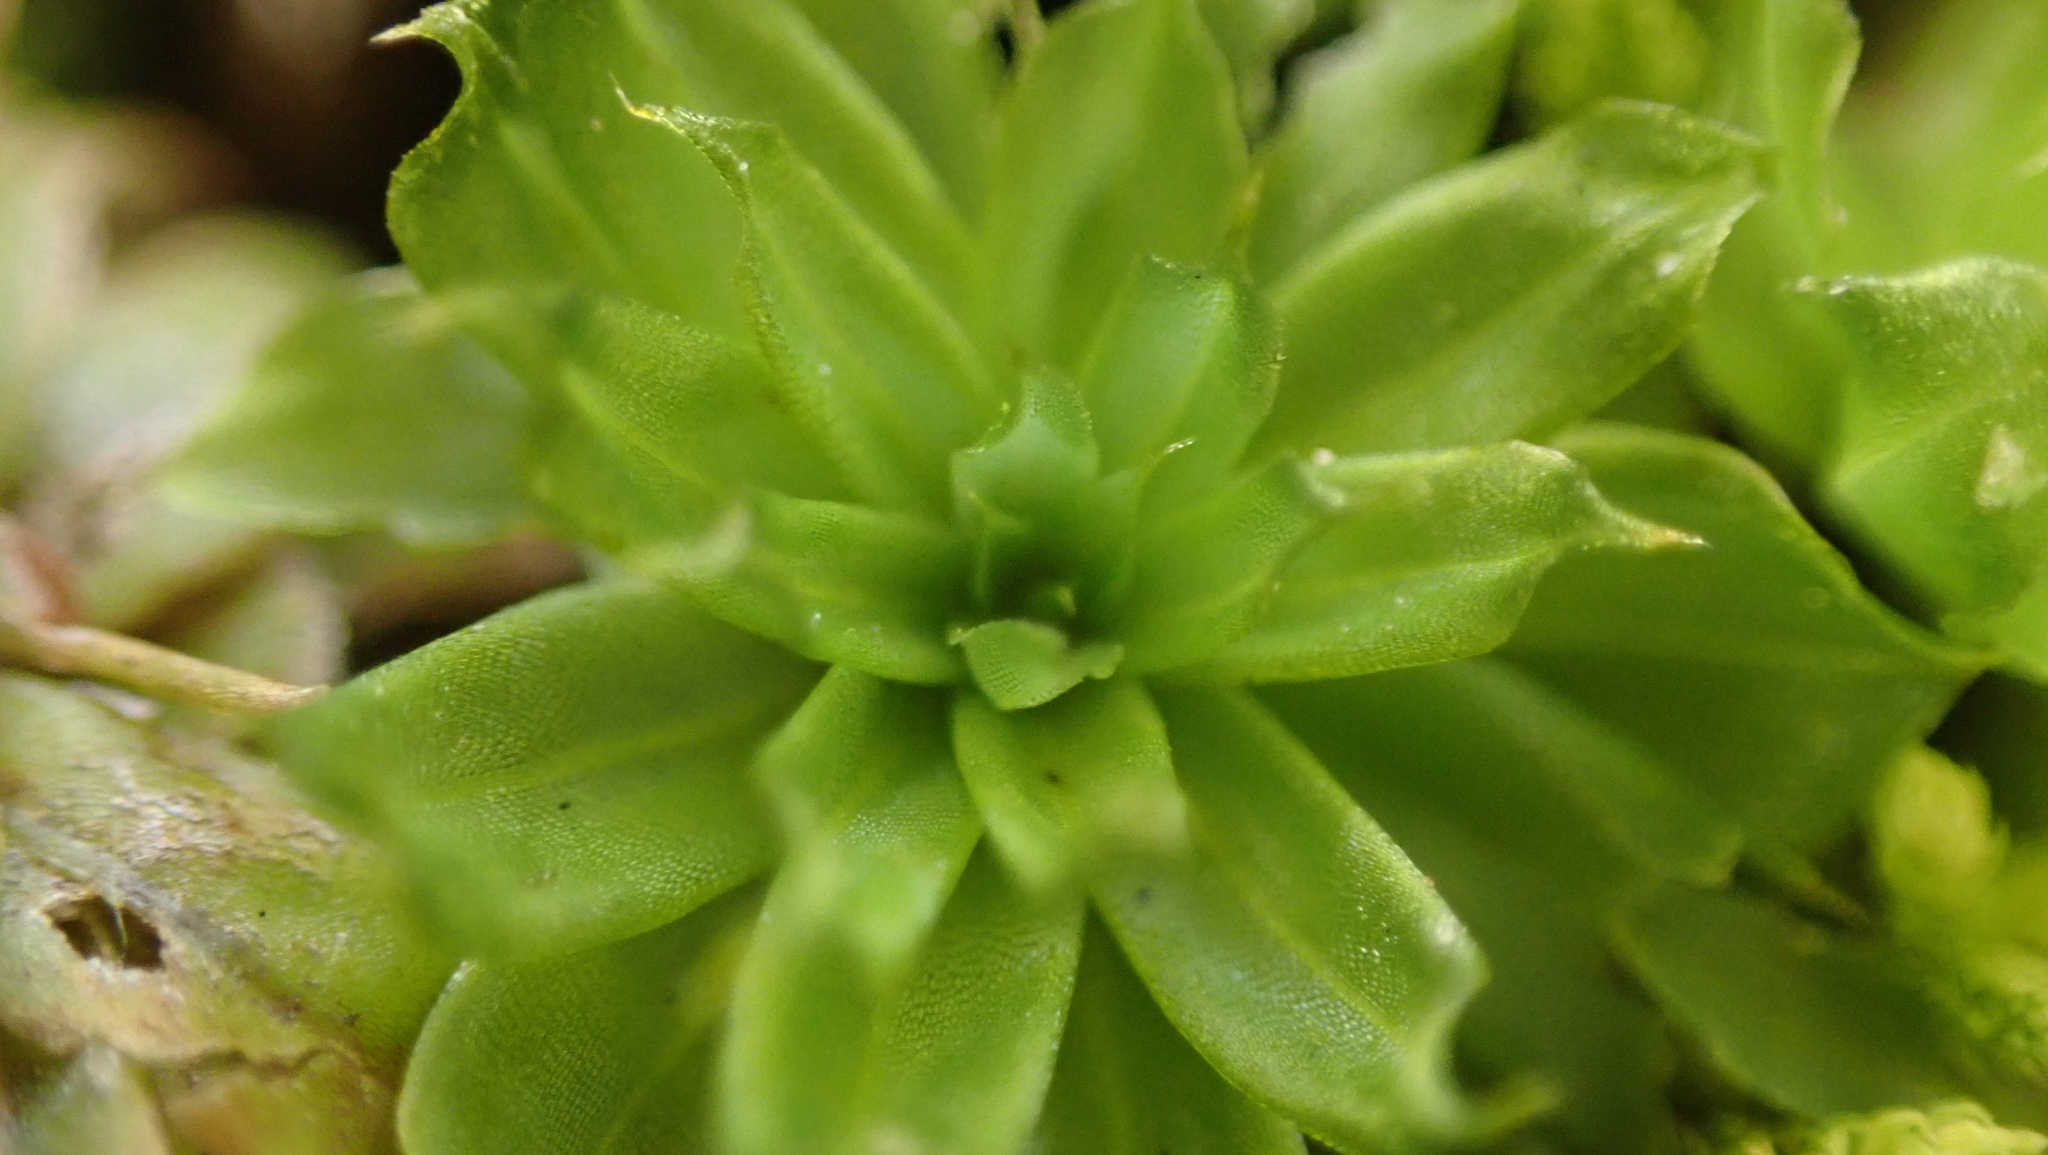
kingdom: Plantae
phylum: Bryophyta
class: Bryopsida
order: Bryales
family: Bryaceae
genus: Rhodobryum
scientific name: Rhodobryum ontariense
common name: Ontario rhodobryum moss
